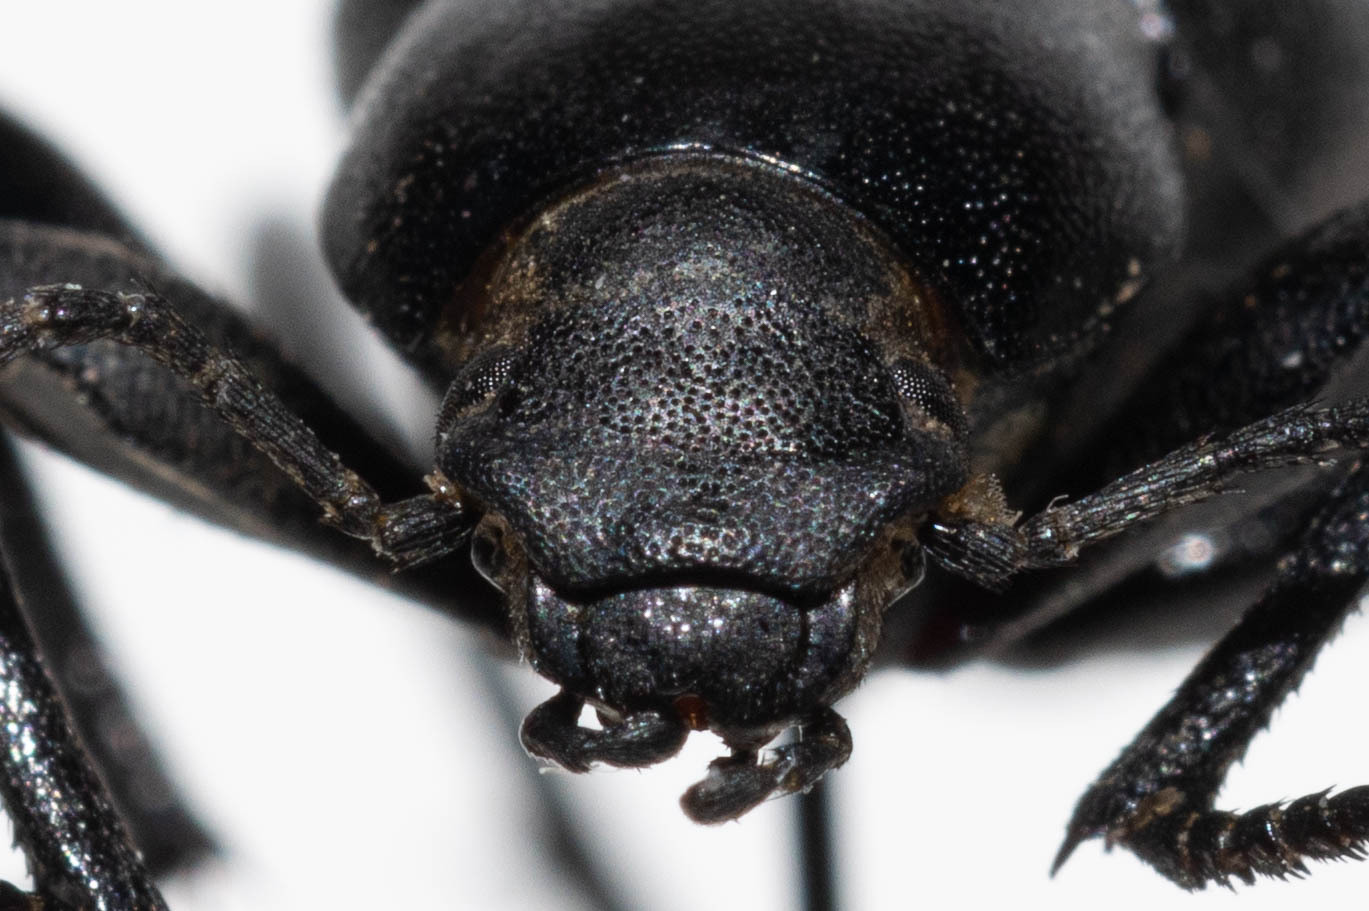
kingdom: Animalia
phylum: Arthropoda
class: Insecta
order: Coleoptera
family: Tenebrionidae
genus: Eleodes
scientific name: Eleodes granulata
